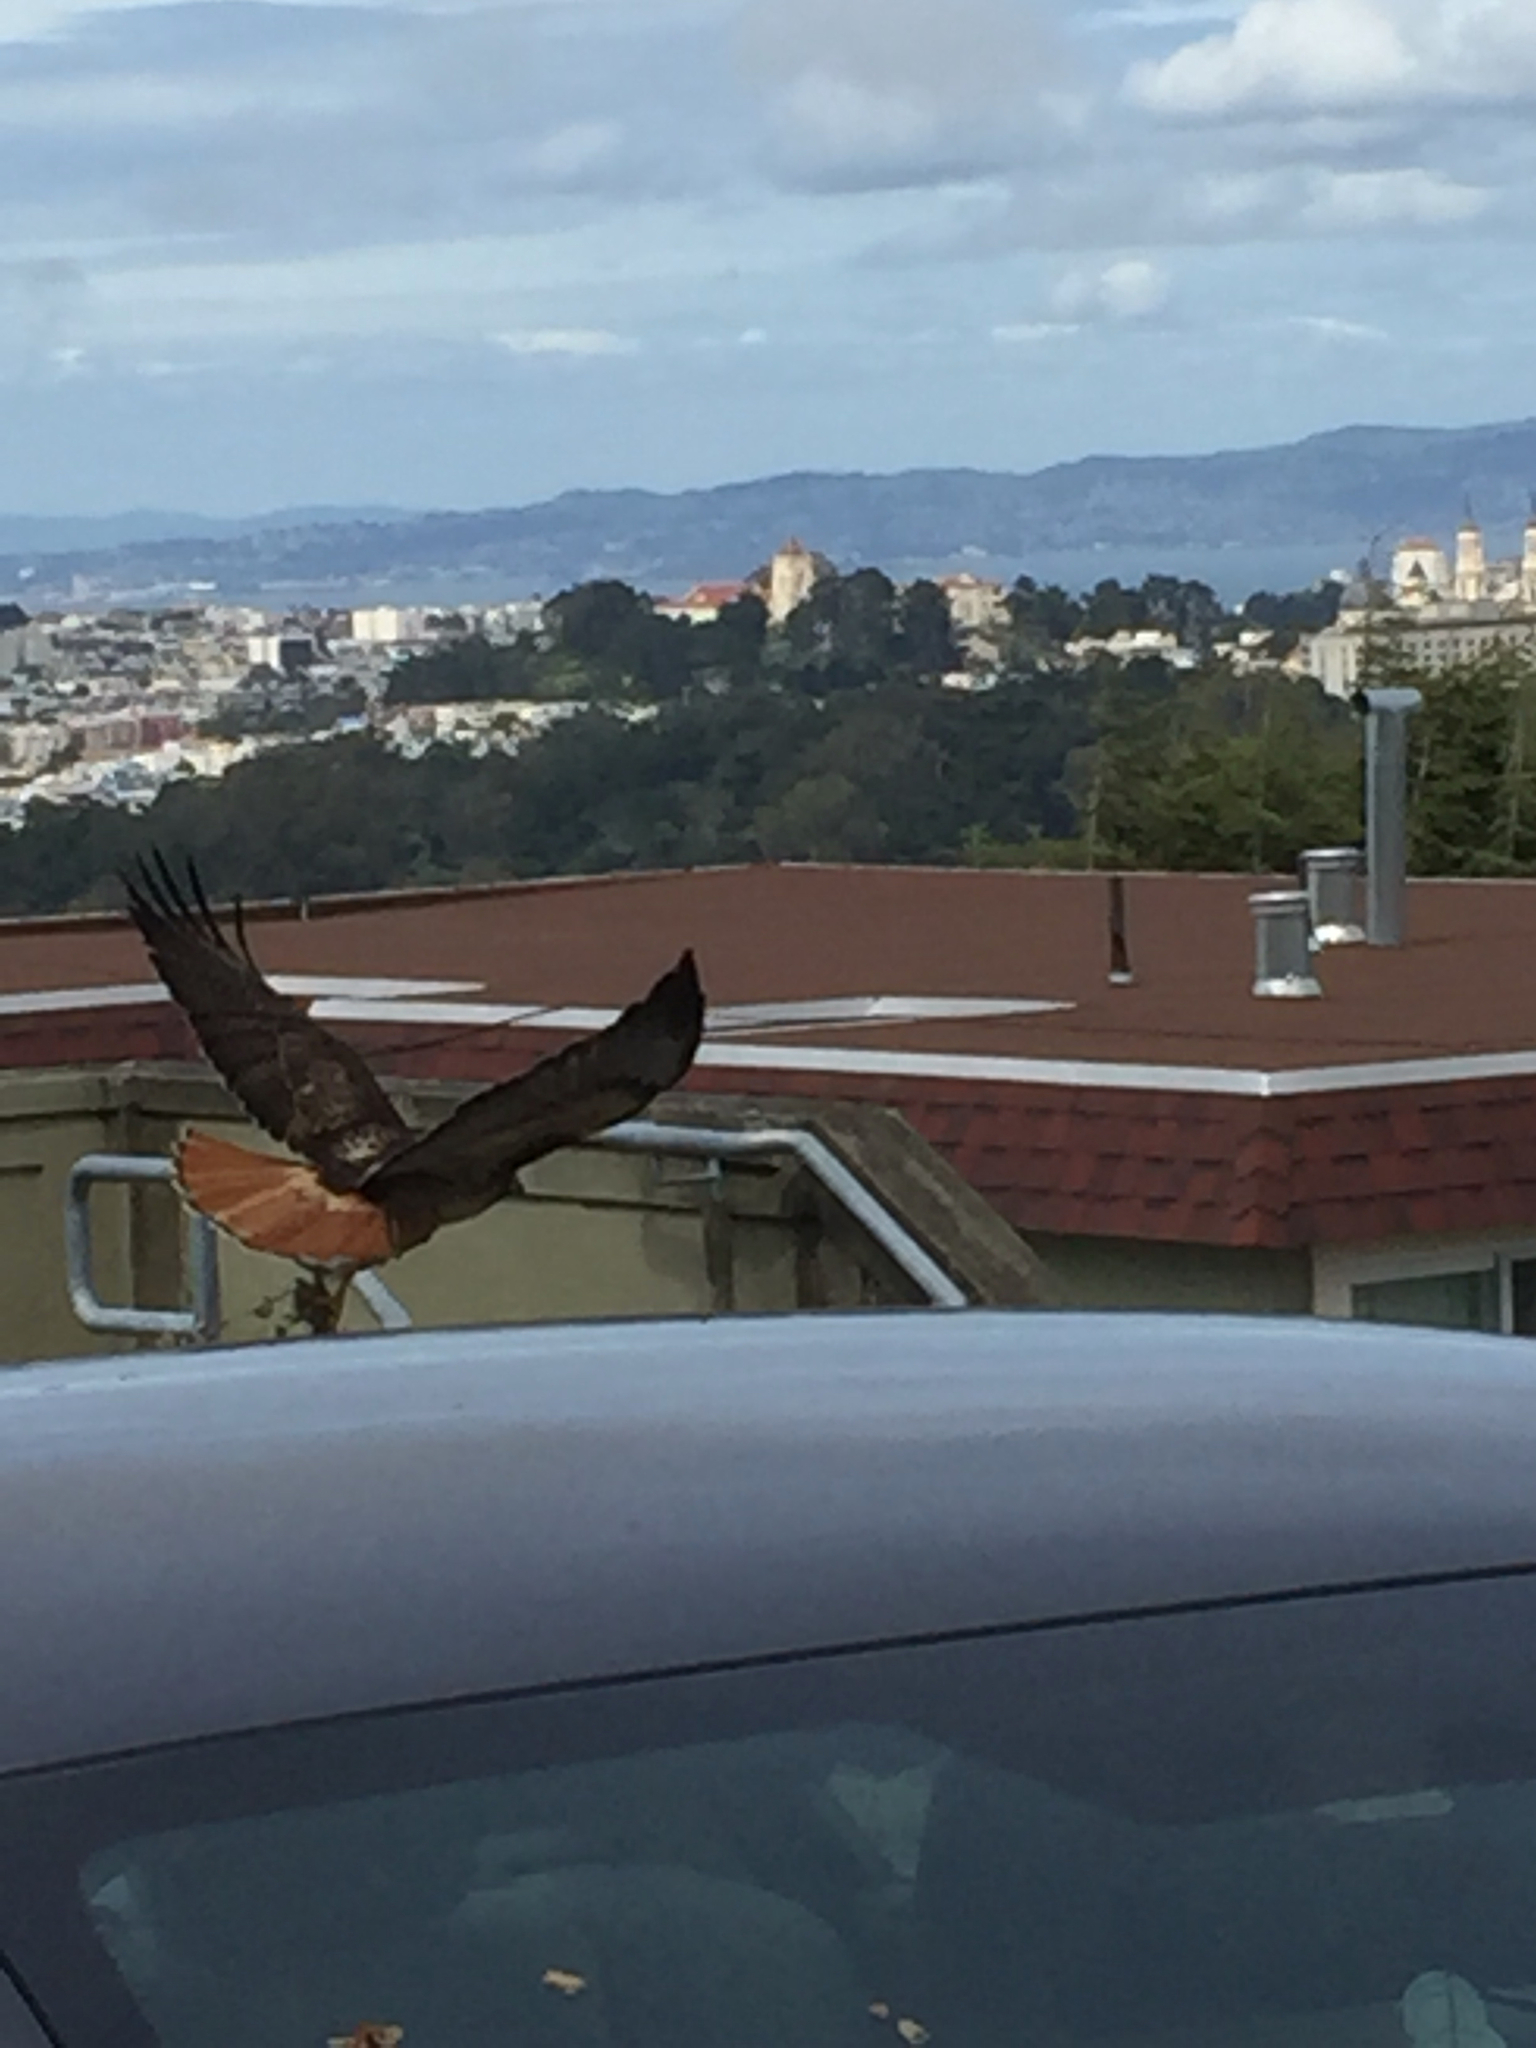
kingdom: Animalia
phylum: Chordata
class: Aves
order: Accipitriformes
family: Accipitridae
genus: Buteo
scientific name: Buteo jamaicensis
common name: Red-tailed hawk
